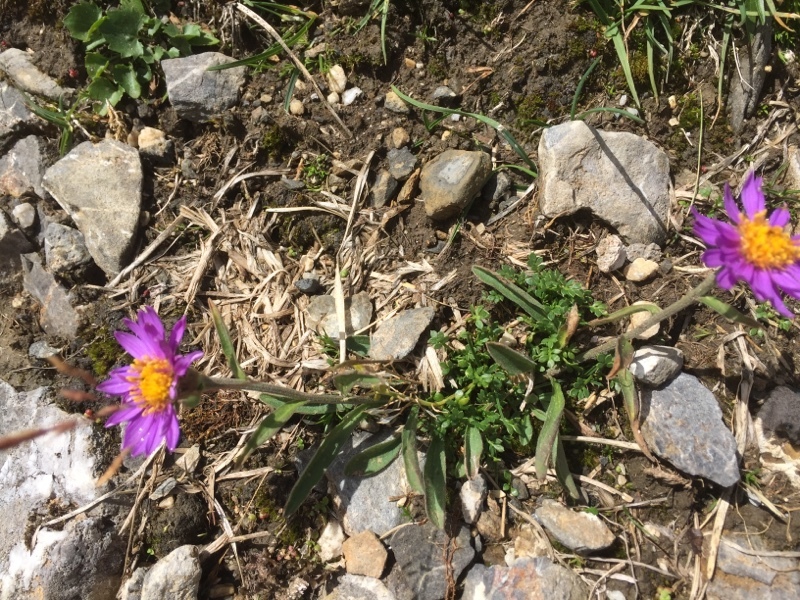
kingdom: Plantae
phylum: Tracheophyta
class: Magnoliopsida
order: Asterales
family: Asteraceae
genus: Aster
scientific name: Aster alpinus
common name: Alpine aster
